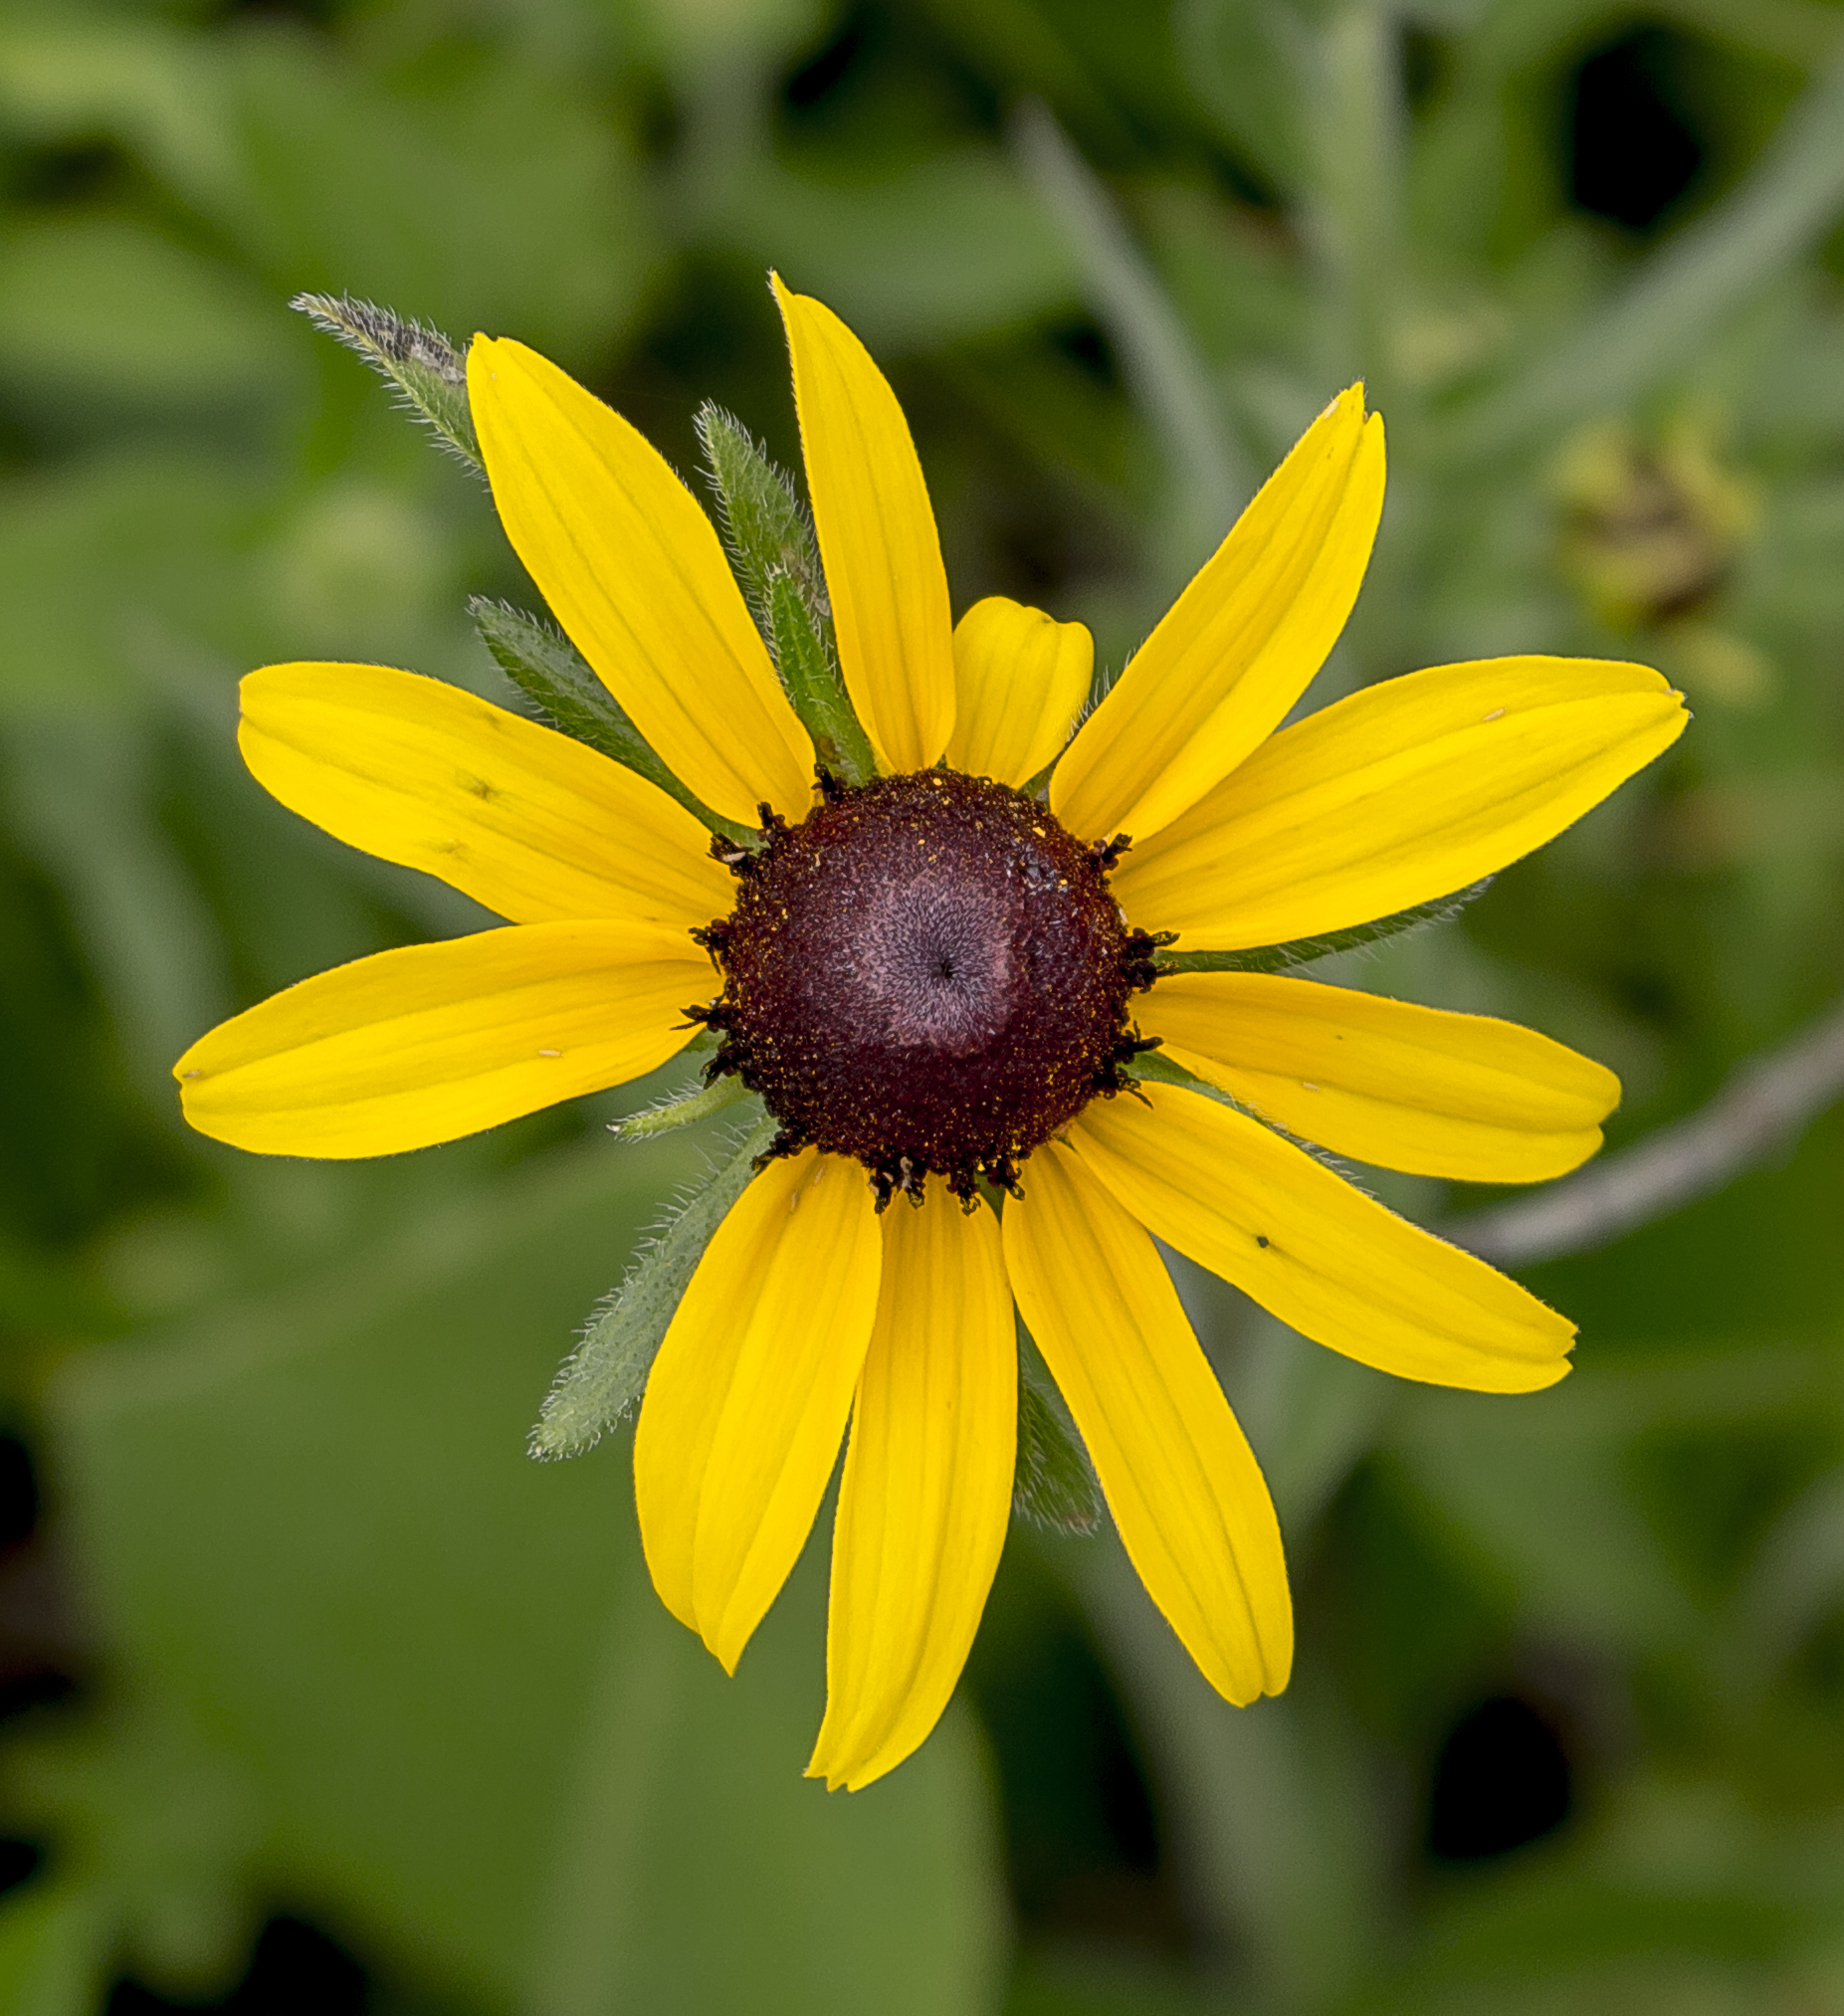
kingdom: Plantae
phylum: Tracheophyta
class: Magnoliopsida
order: Asterales
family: Asteraceae
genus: Rudbeckia
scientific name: Rudbeckia hirta
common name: Black-eyed-susan
